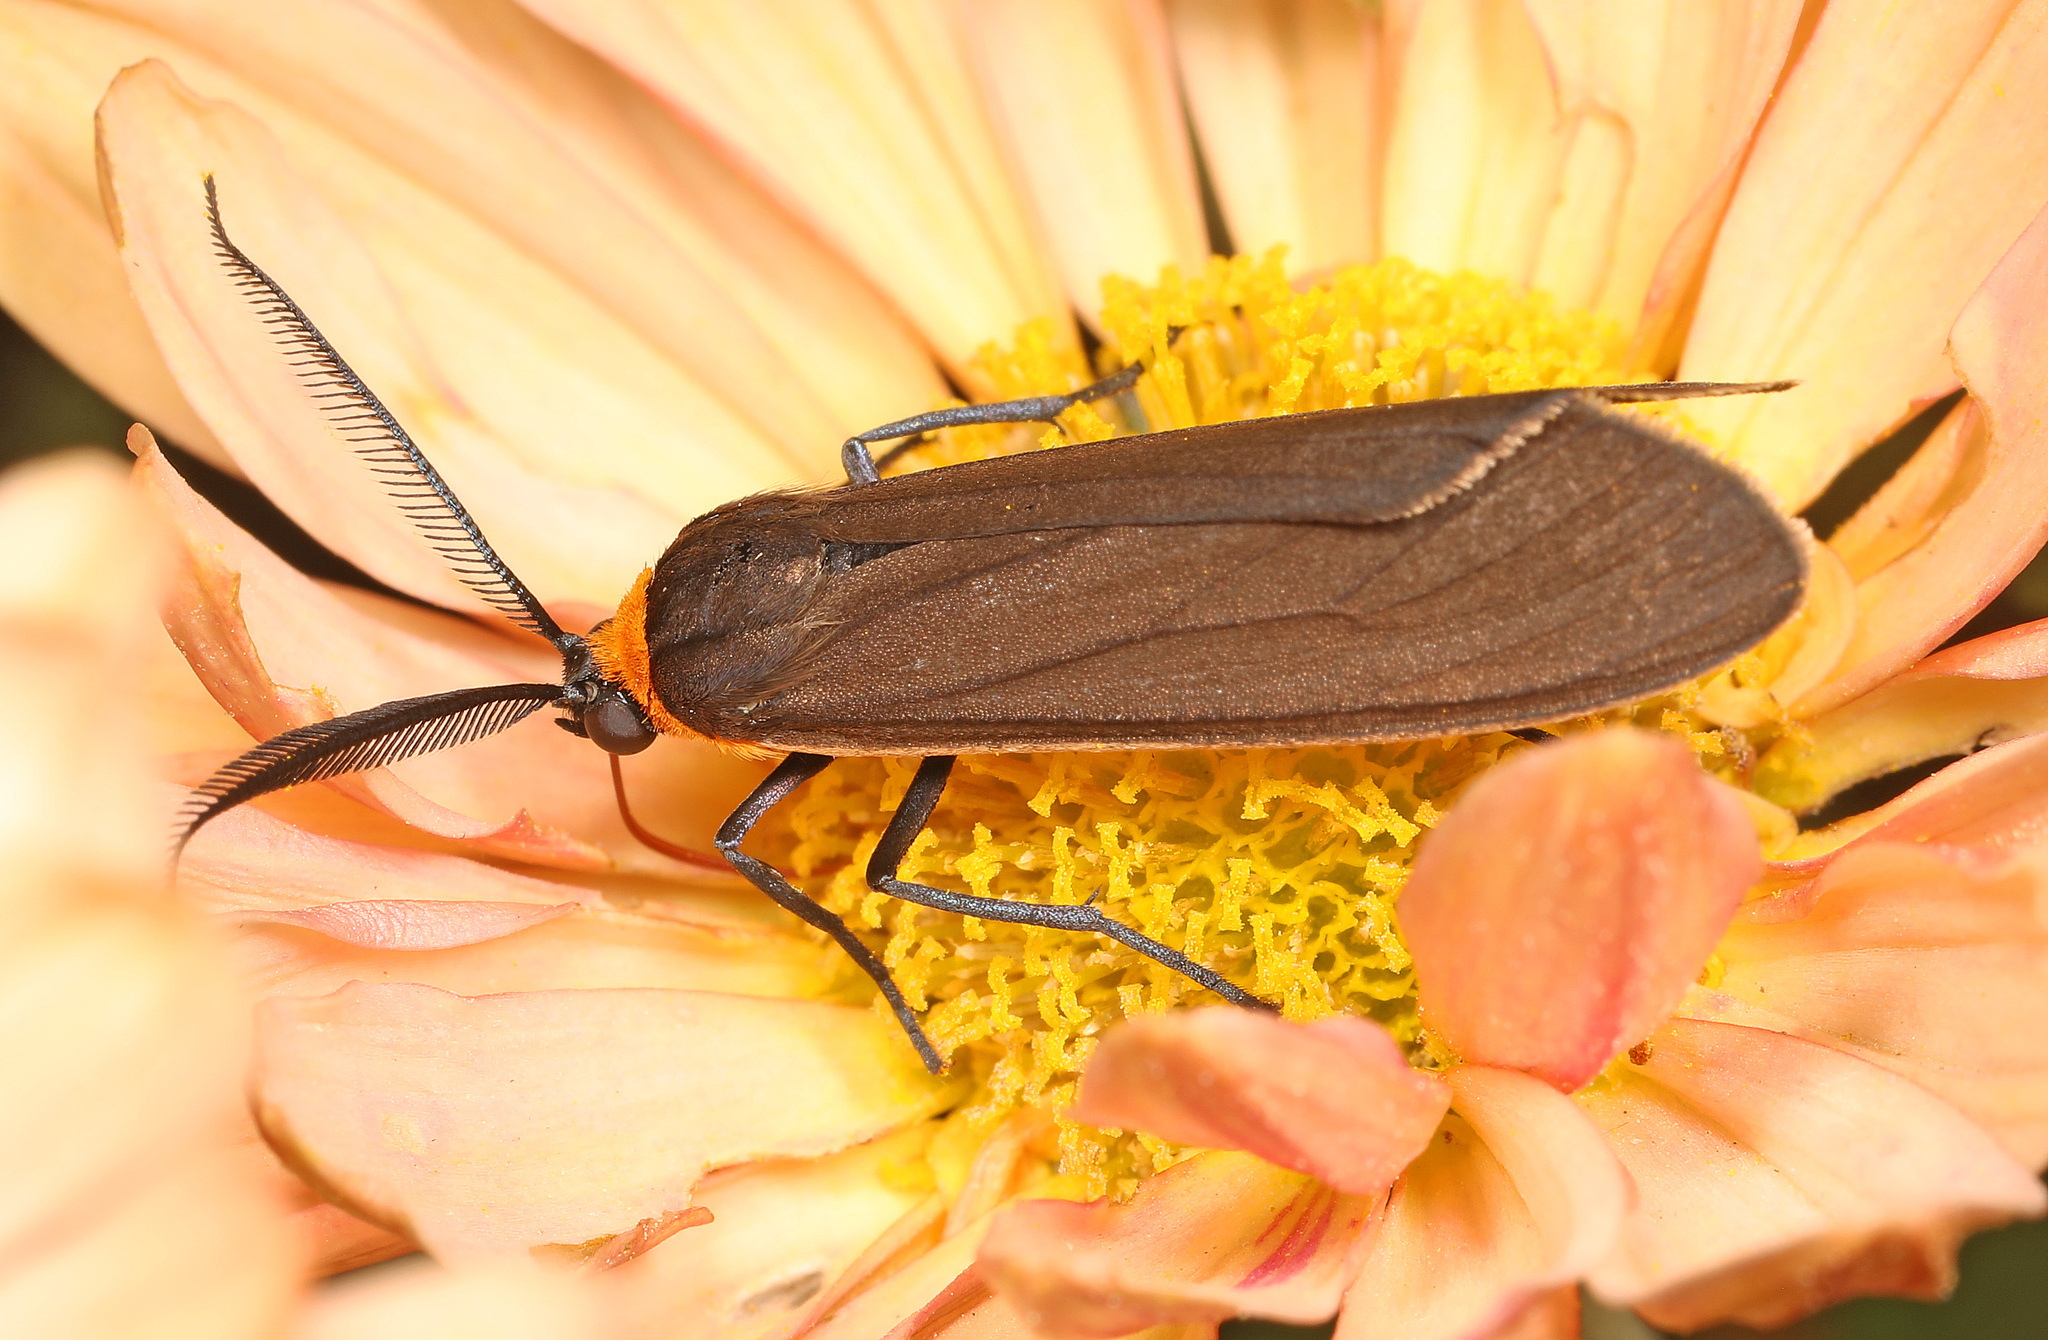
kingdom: Animalia
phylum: Arthropoda
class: Insecta
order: Lepidoptera
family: Erebidae
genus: Cisseps
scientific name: Cisseps fulvicollis
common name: Yellow-collared scape moth
